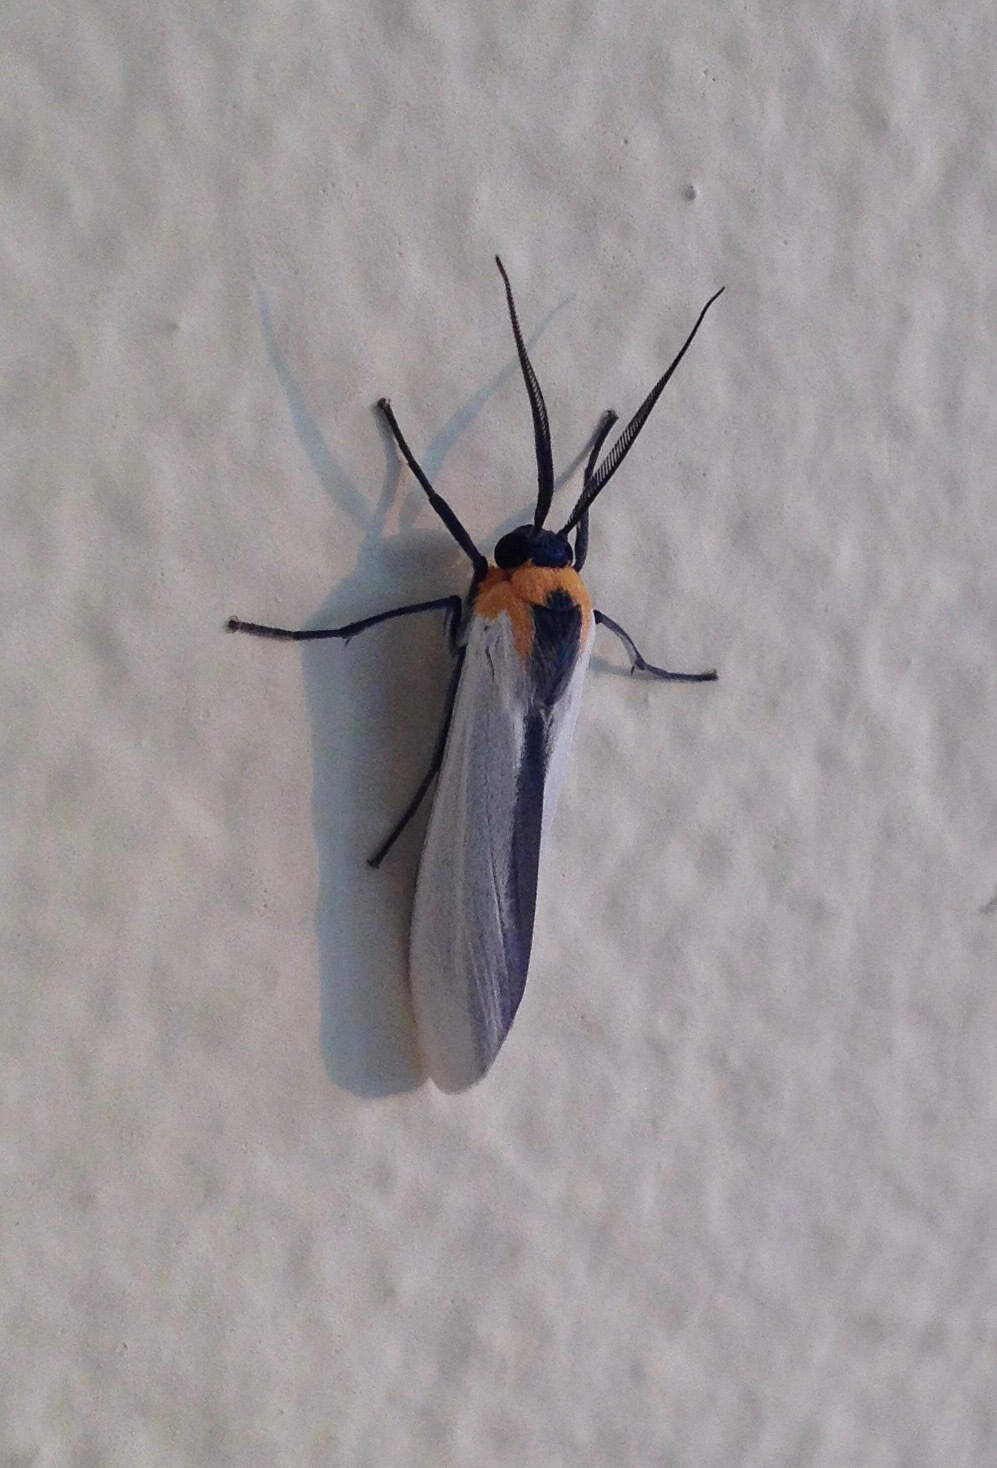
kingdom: Animalia
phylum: Arthropoda
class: Insecta
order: Lepidoptera
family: Erebidae
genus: Lymire
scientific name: Lymire albipennis
